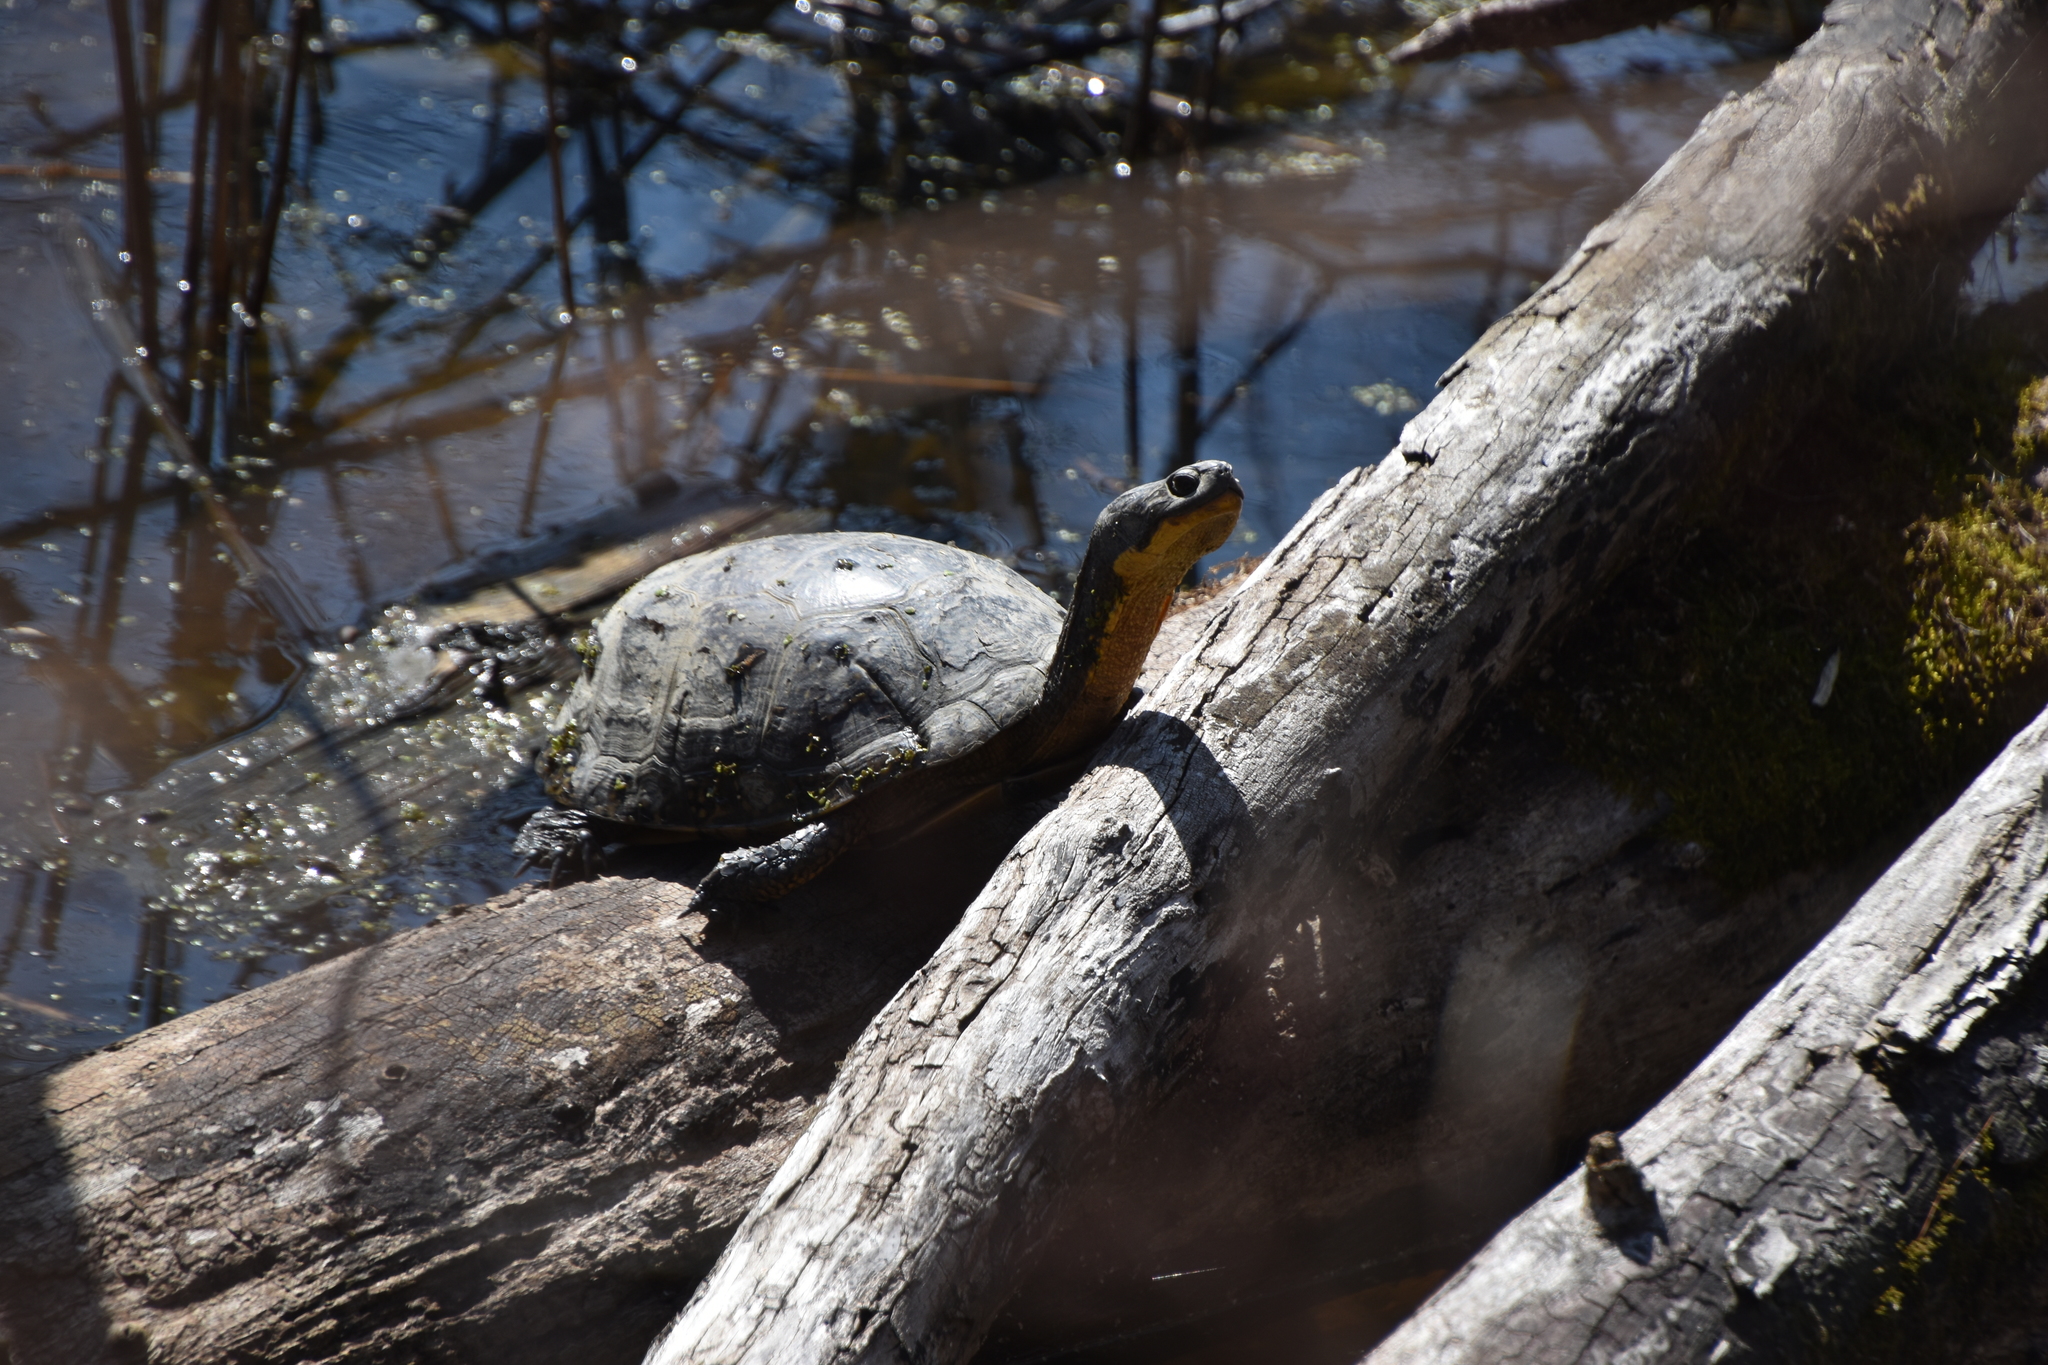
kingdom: Animalia
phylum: Chordata
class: Testudines
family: Emydidae
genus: Emys
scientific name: Emys blandingii
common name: Blanding's turtle
